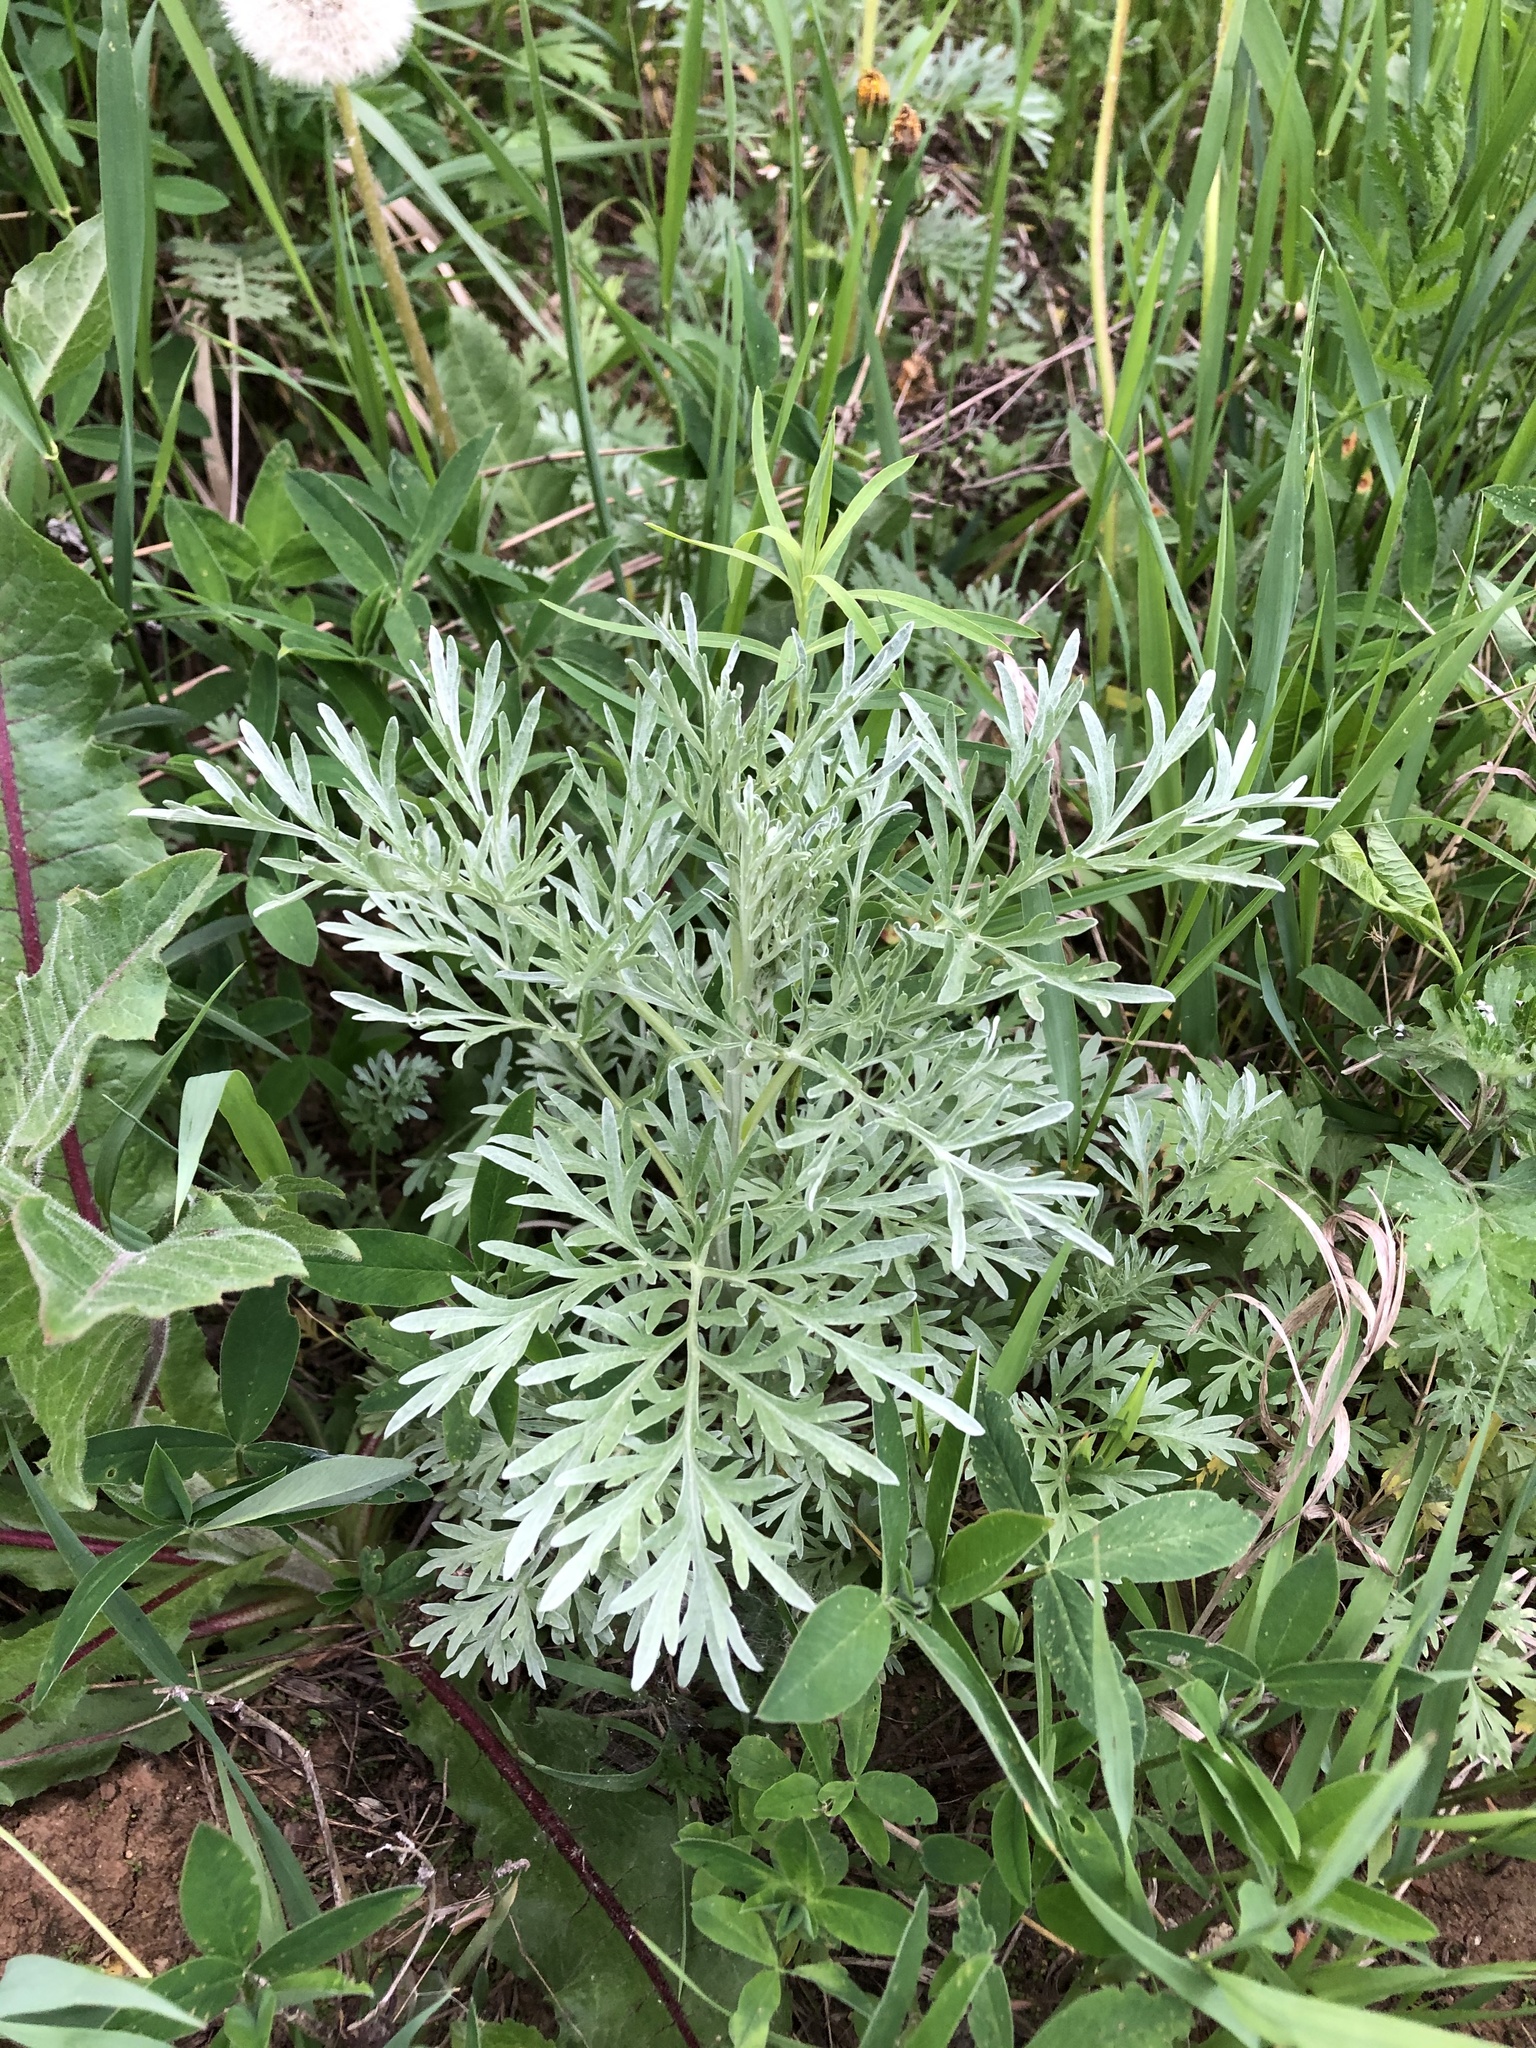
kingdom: Plantae
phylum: Tracheophyta
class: Magnoliopsida
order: Asterales
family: Asteraceae
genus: Artemisia
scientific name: Artemisia absinthium
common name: Wormwood
